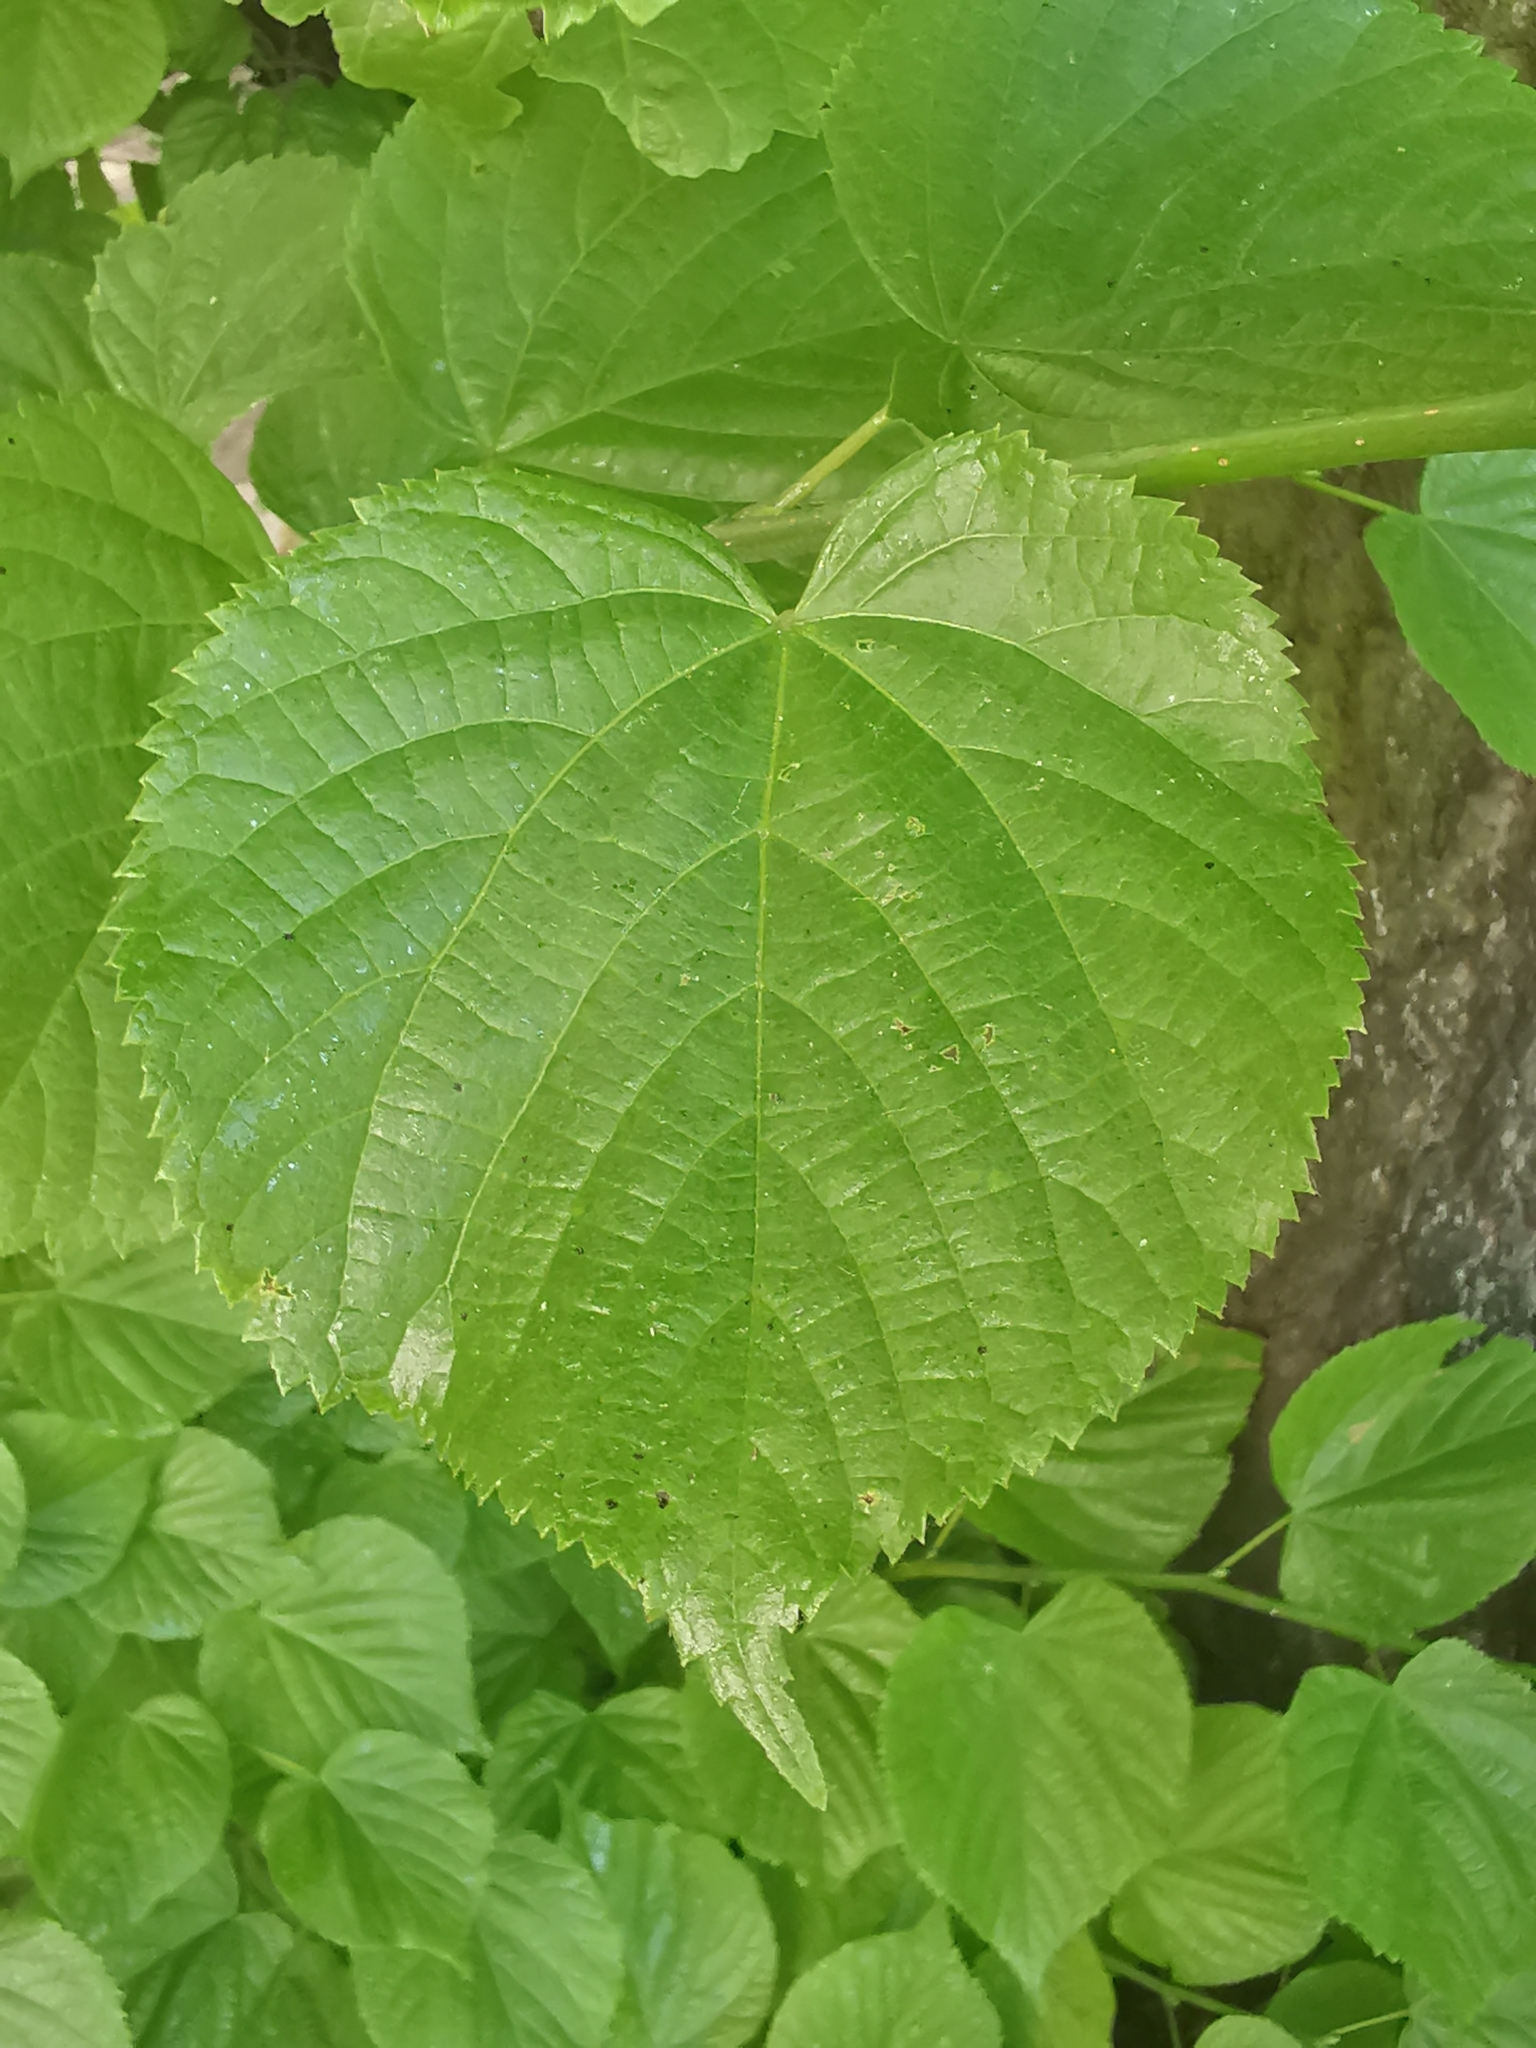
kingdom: Animalia
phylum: Arthropoda
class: Insecta
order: Hemiptera
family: Aphididae
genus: Eucallipterus
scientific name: Eucallipterus tiliae
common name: Aphid
